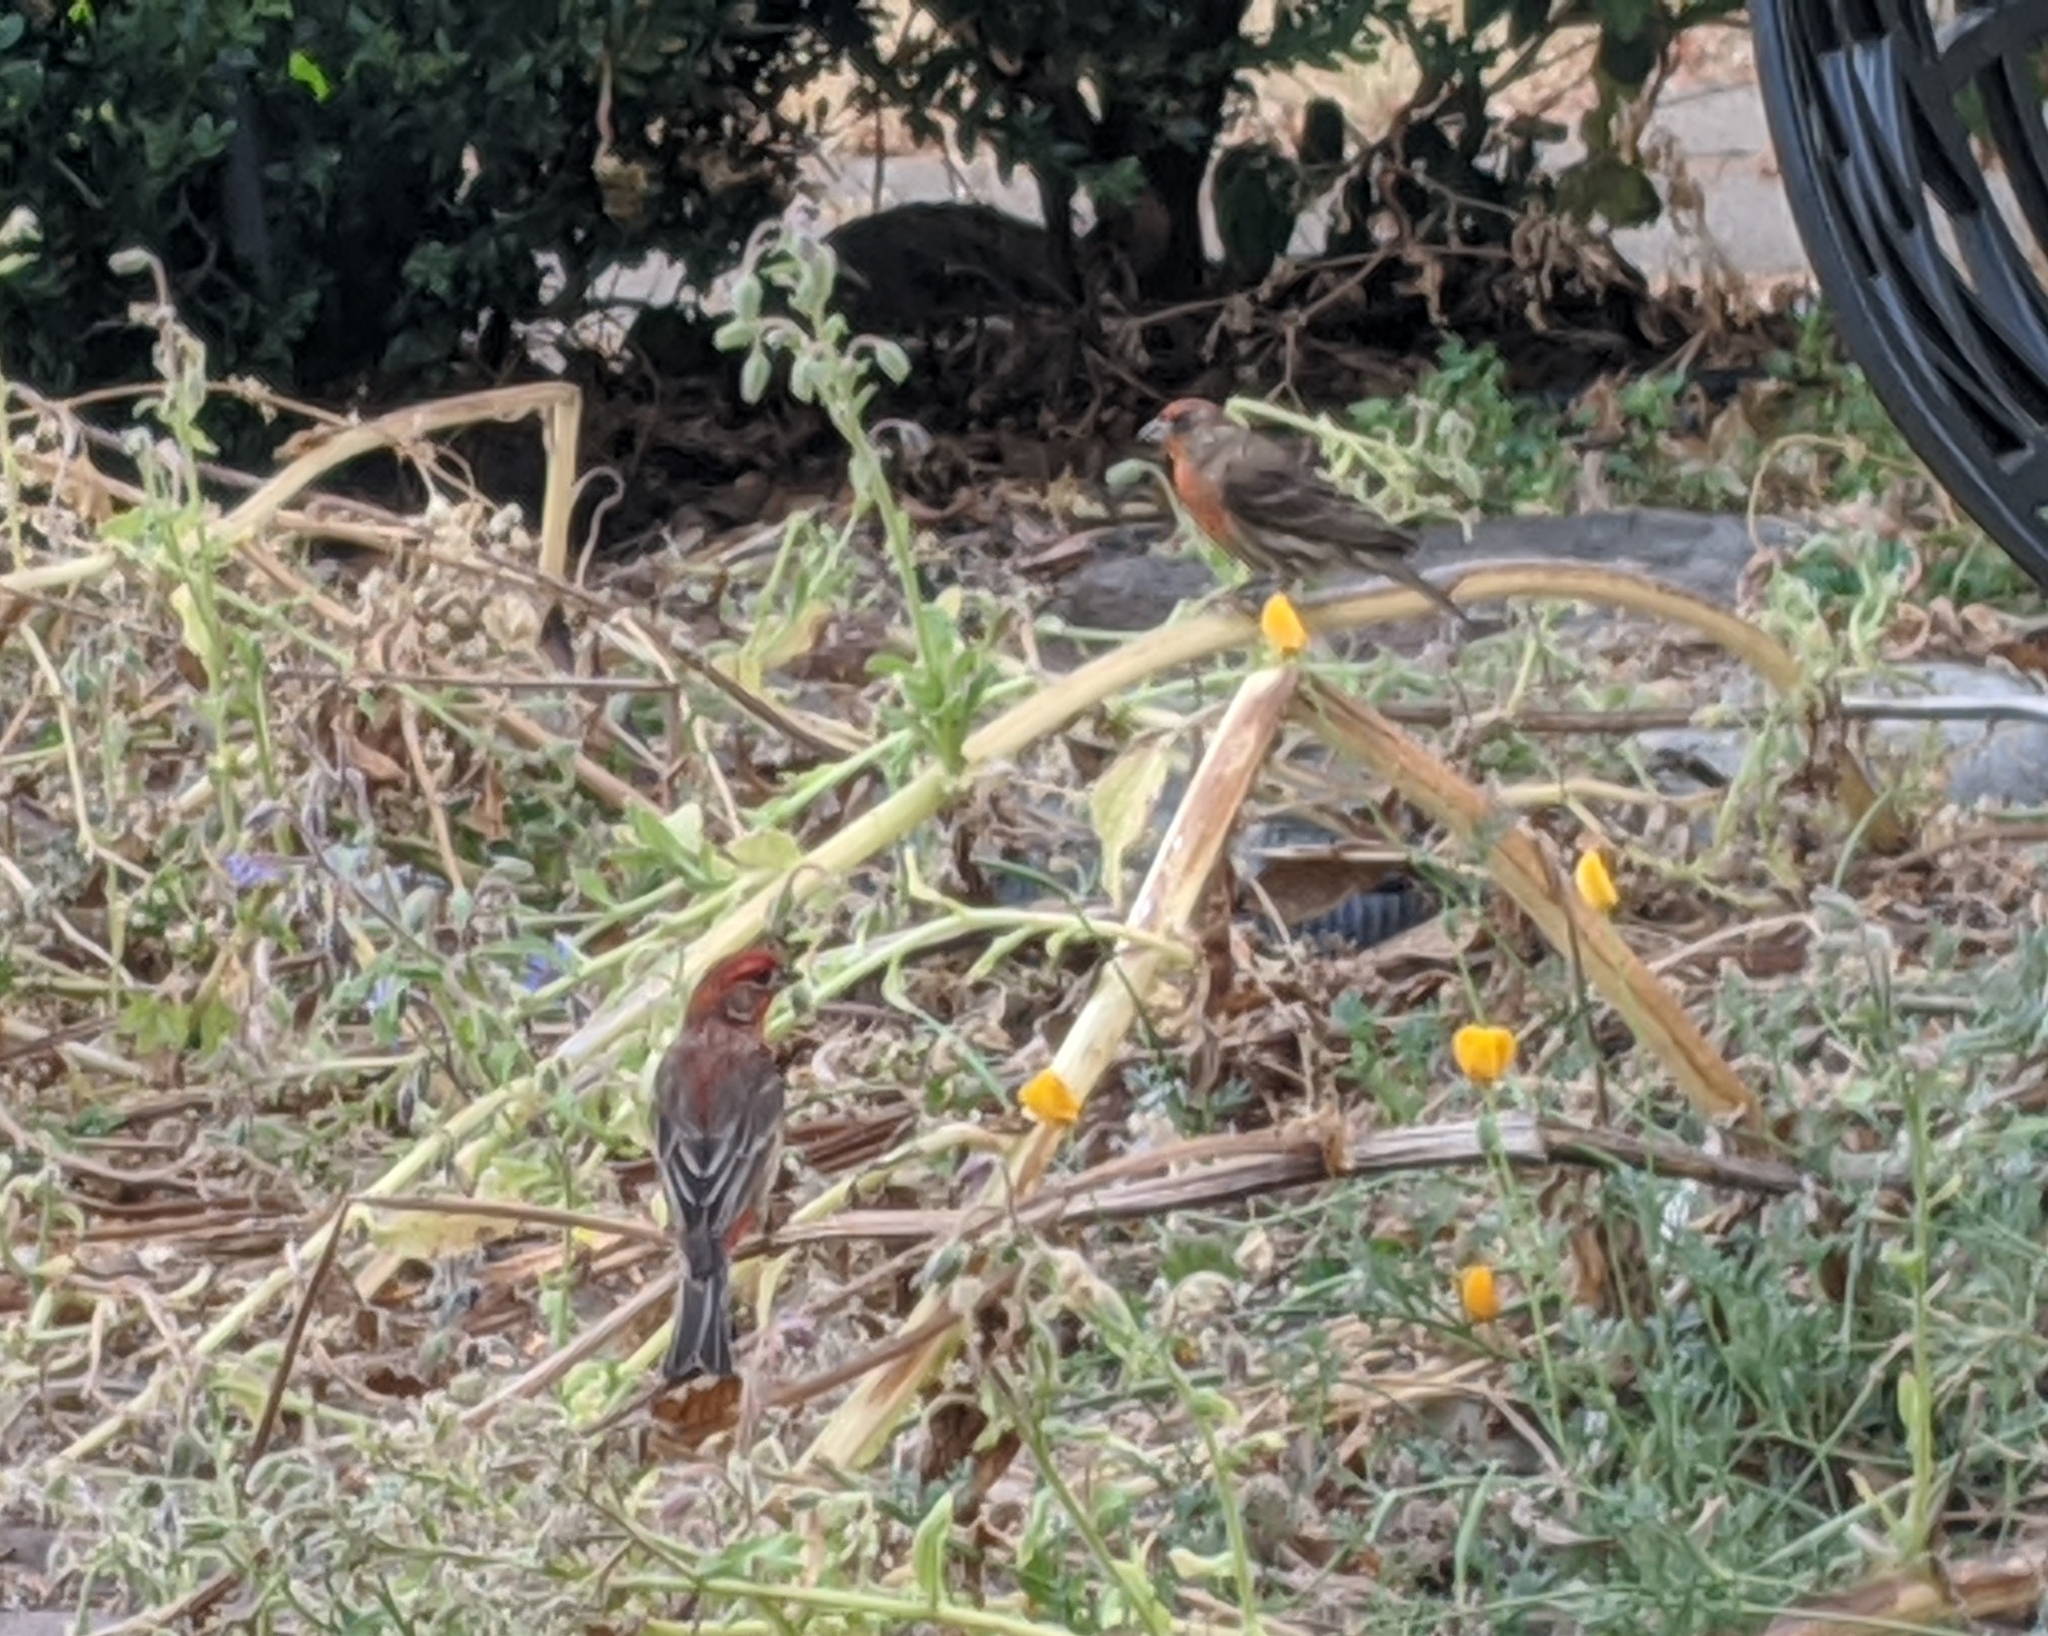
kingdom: Animalia
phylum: Chordata
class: Aves
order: Passeriformes
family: Fringillidae
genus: Haemorhous
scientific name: Haemorhous mexicanus
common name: House finch
